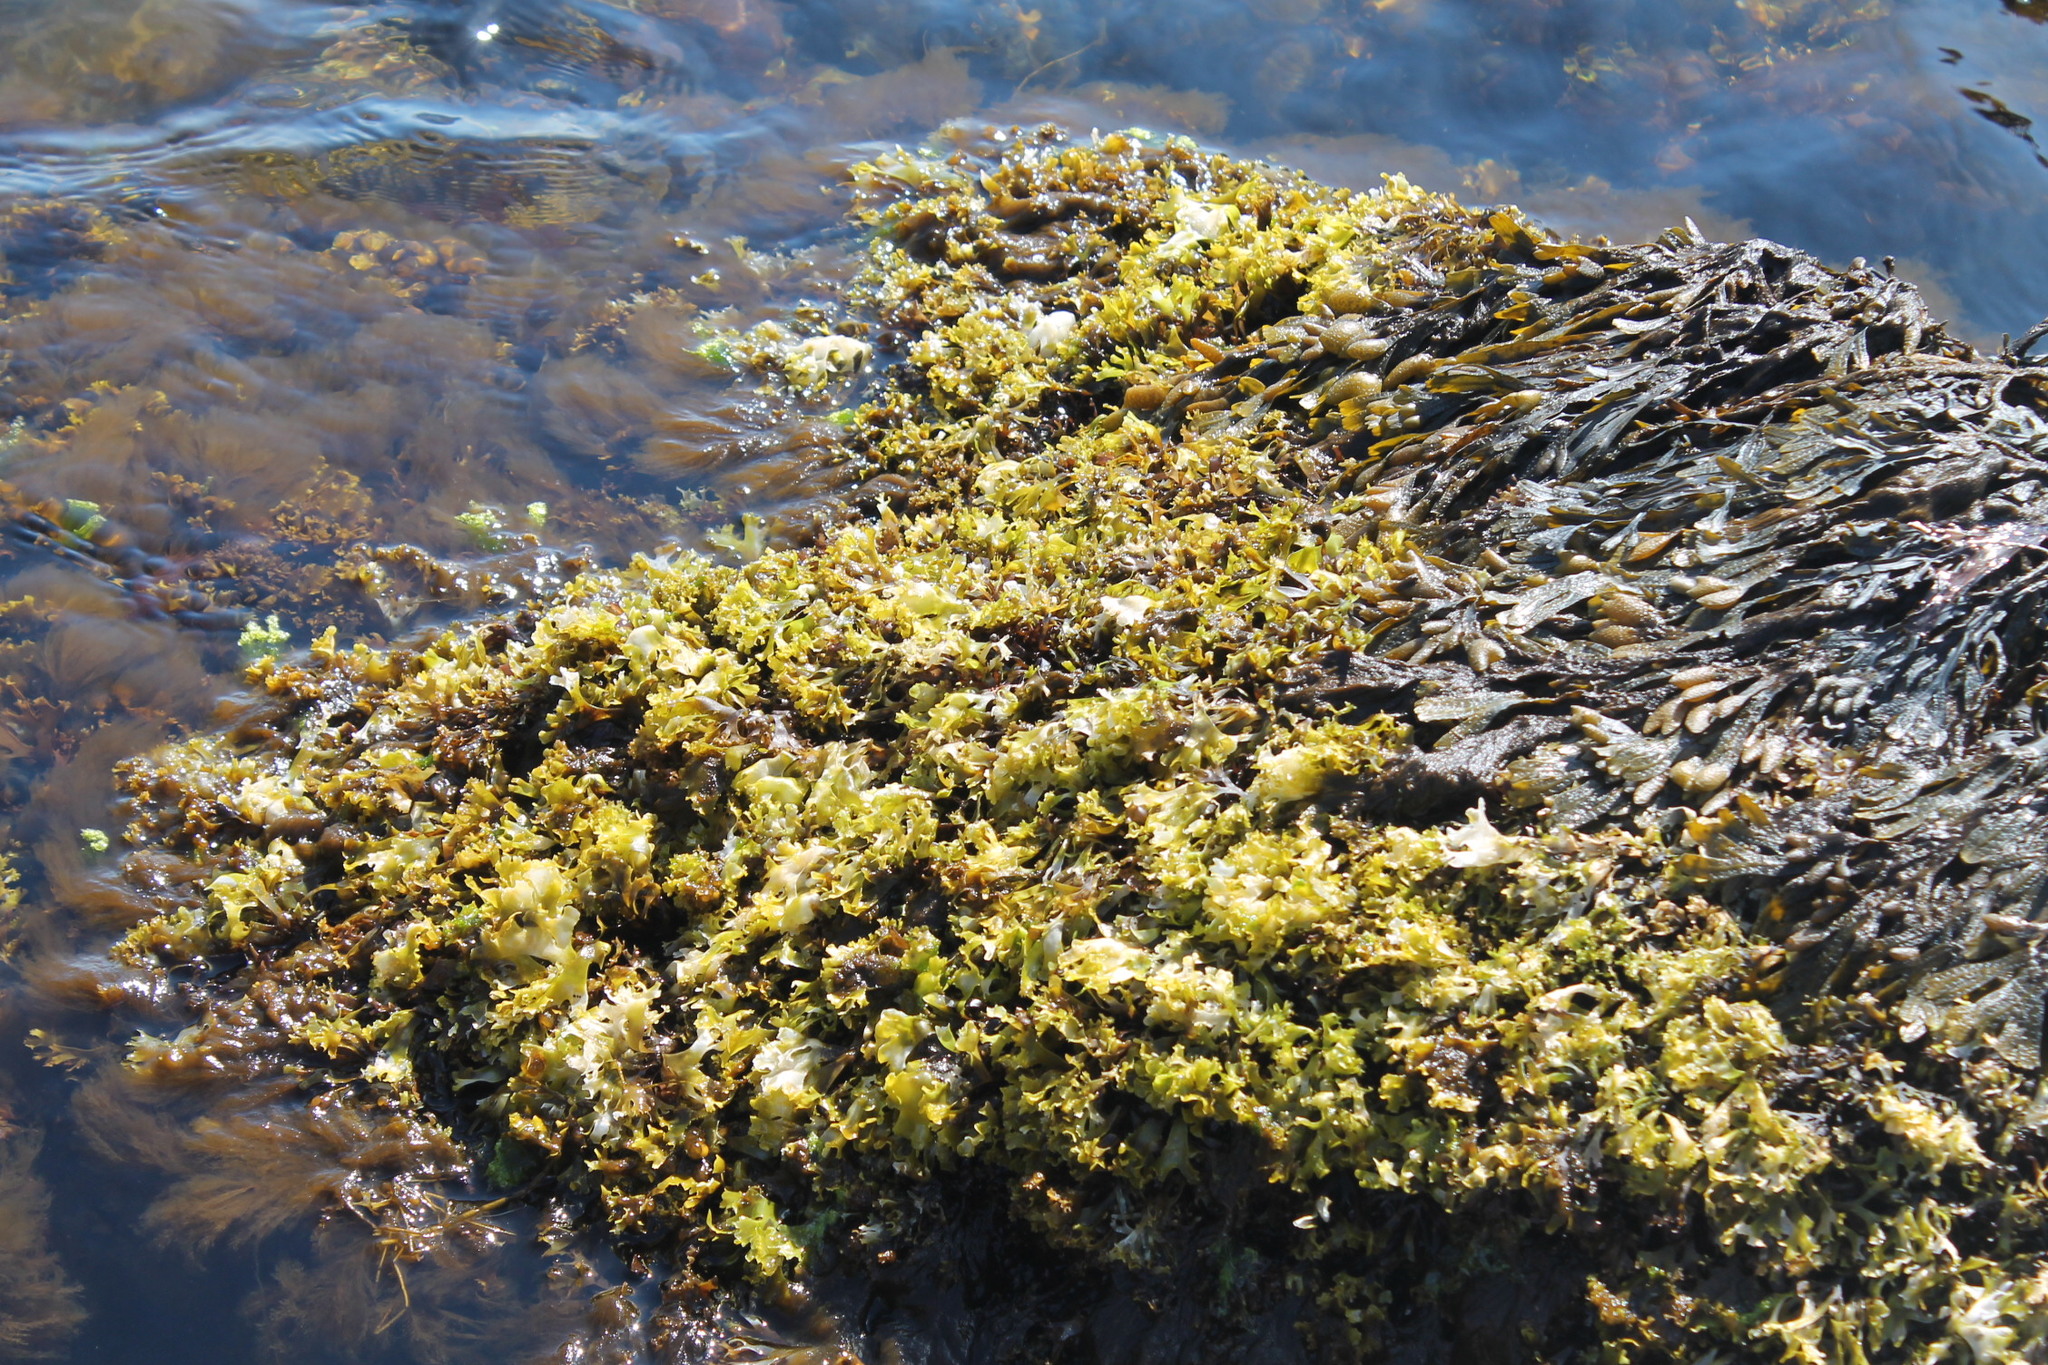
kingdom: Plantae
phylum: Chlorophyta
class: Ulvophyceae
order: Ulvales
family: Ulvaceae
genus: Ulva
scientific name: Ulva lactuca
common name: Sea lettuce
